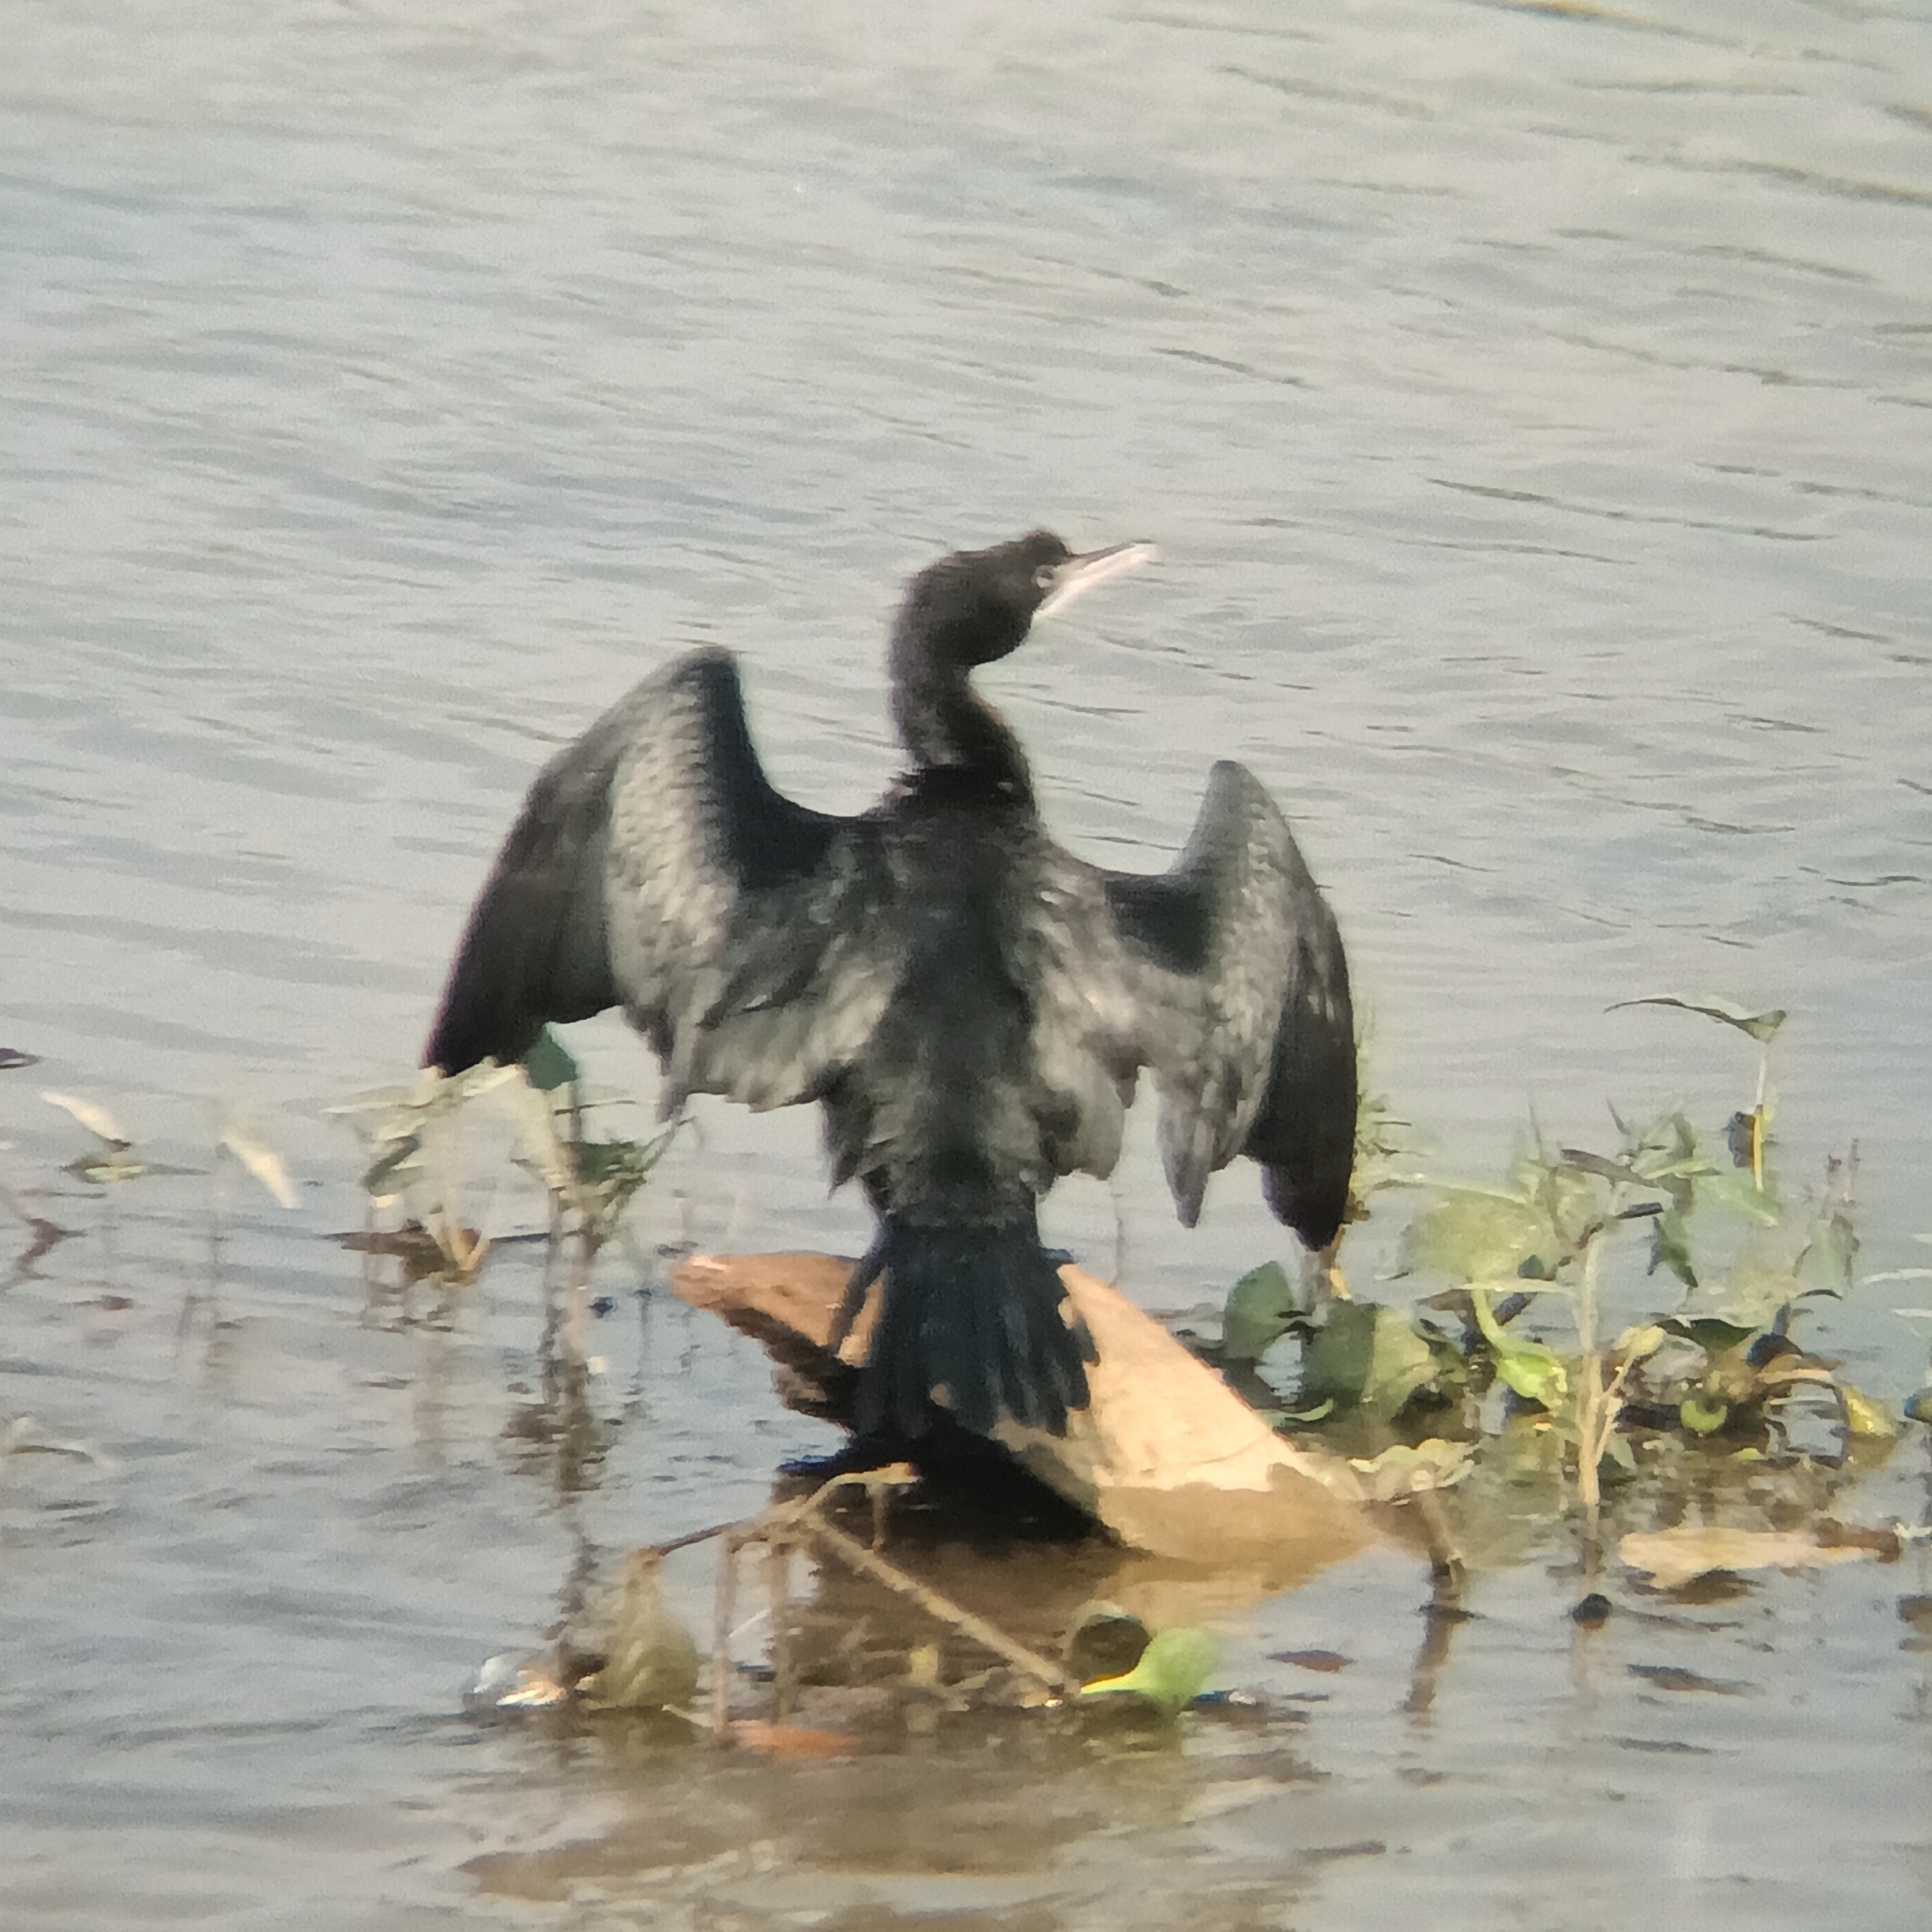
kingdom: Animalia
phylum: Chordata
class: Aves
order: Suliformes
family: Phalacrocoracidae
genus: Microcarbo
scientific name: Microcarbo niger
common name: Little cormorant
